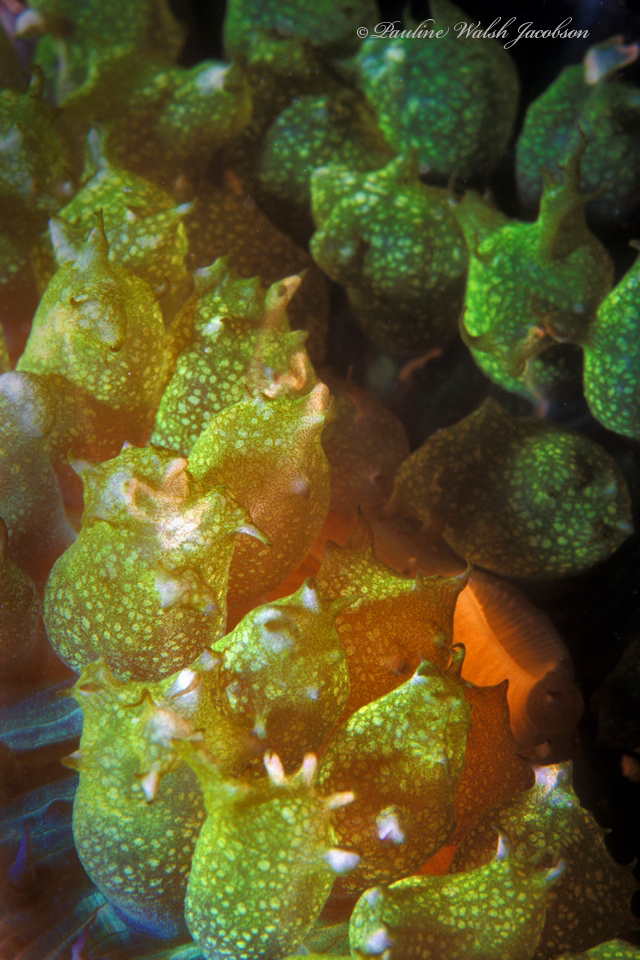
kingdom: Animalia
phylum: Cnidaria
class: Anthozoa
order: Corallimorpharia
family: Discosomidae
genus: Rhodactis
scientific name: Rhodactis osculifera
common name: Warty corallimorph
